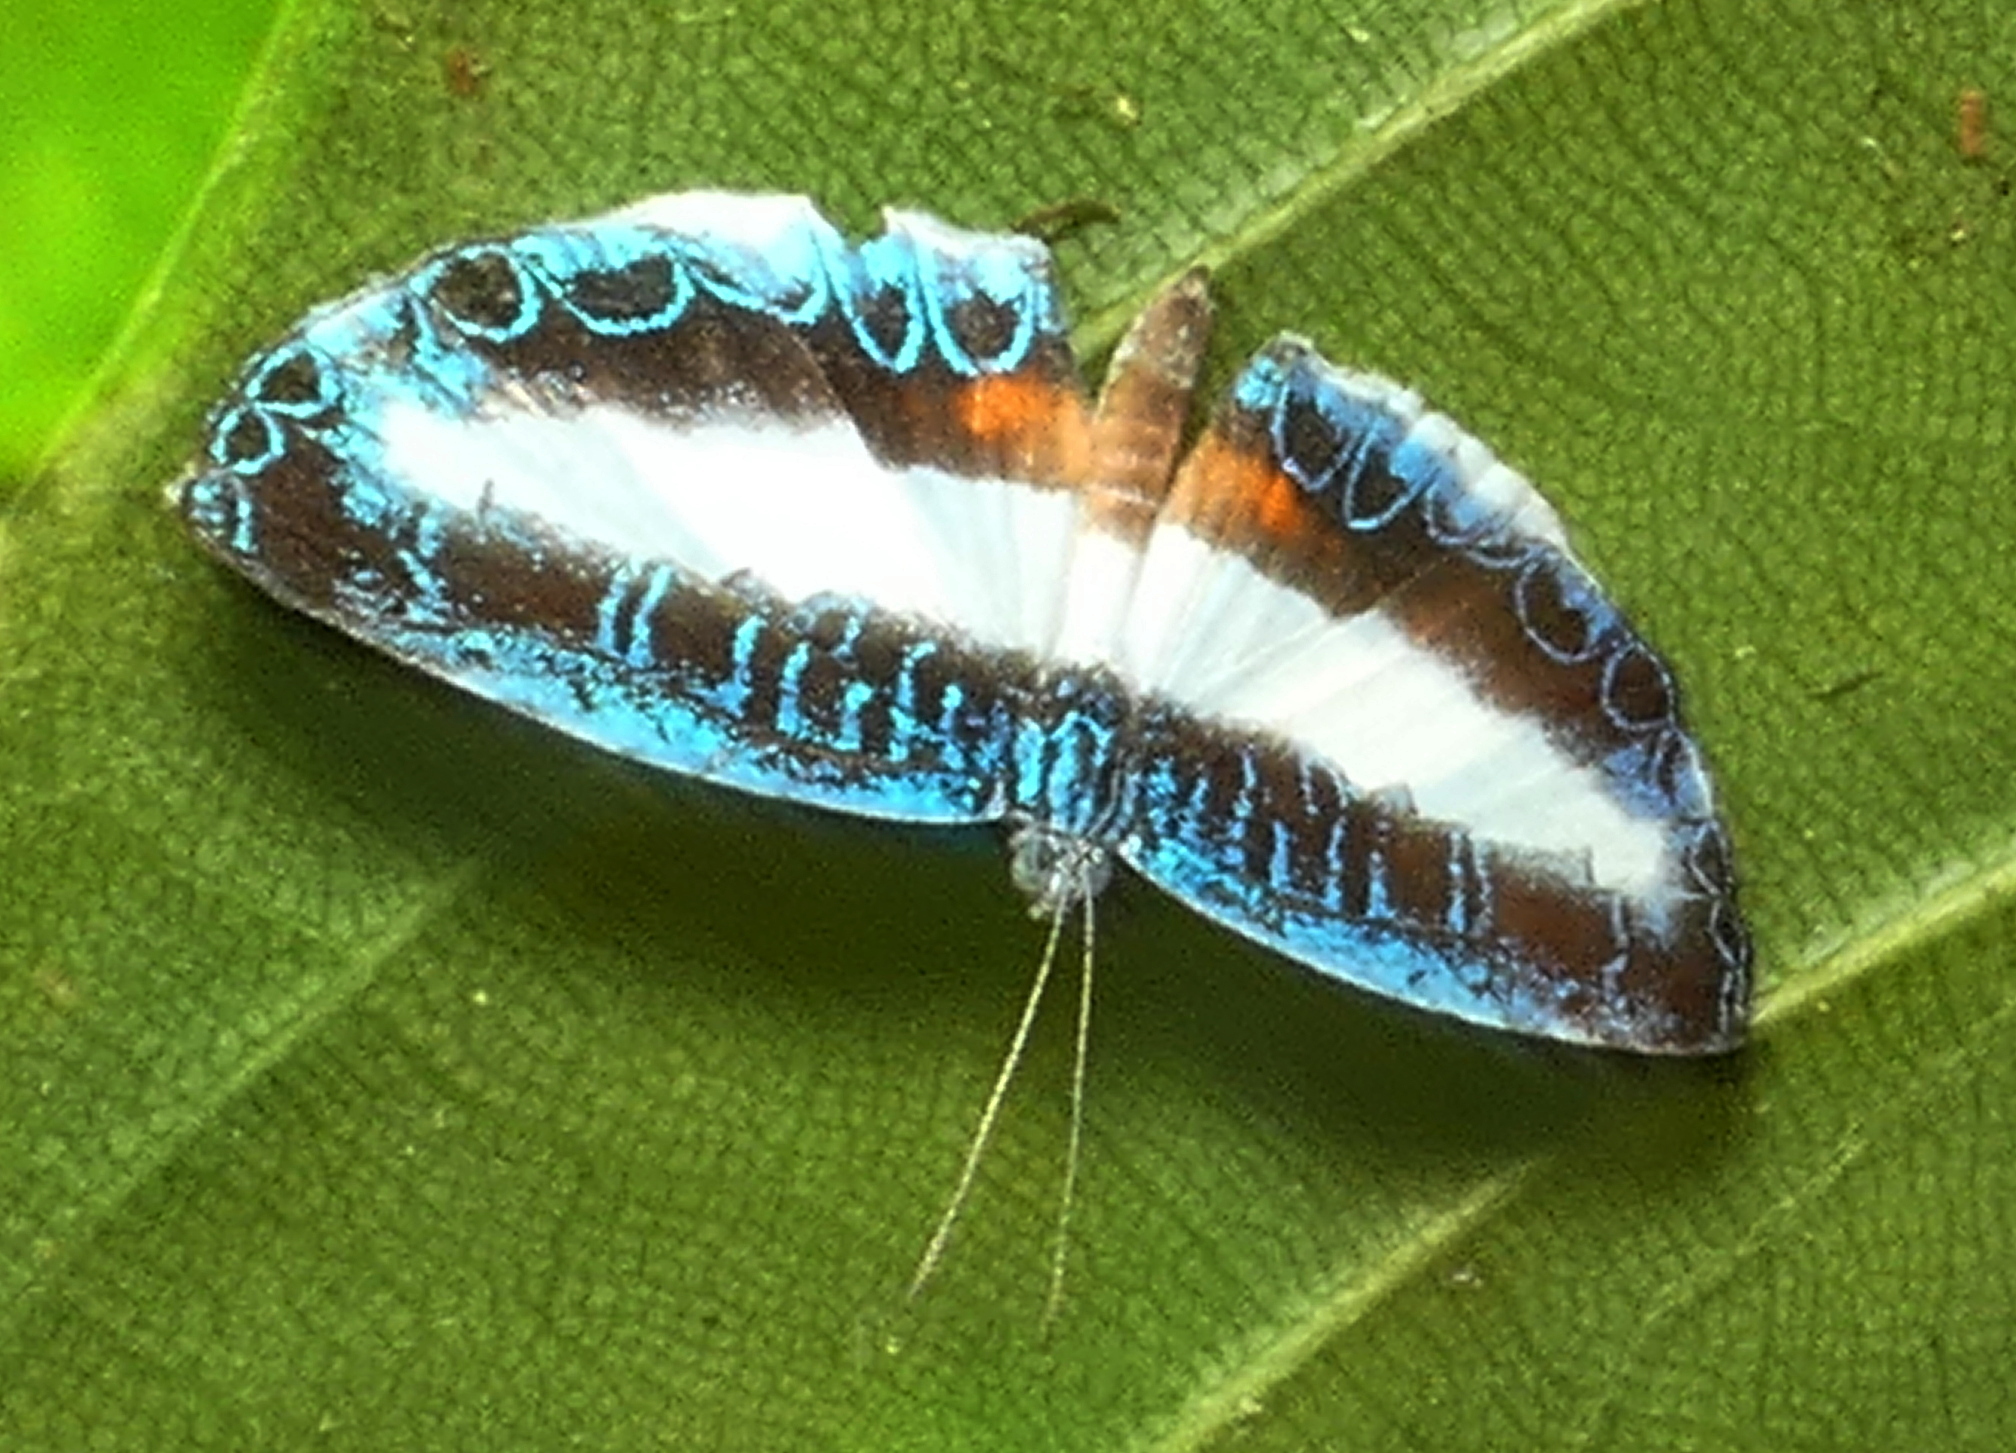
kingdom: Animalia
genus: Nymphidium
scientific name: Nymphidium mantus
